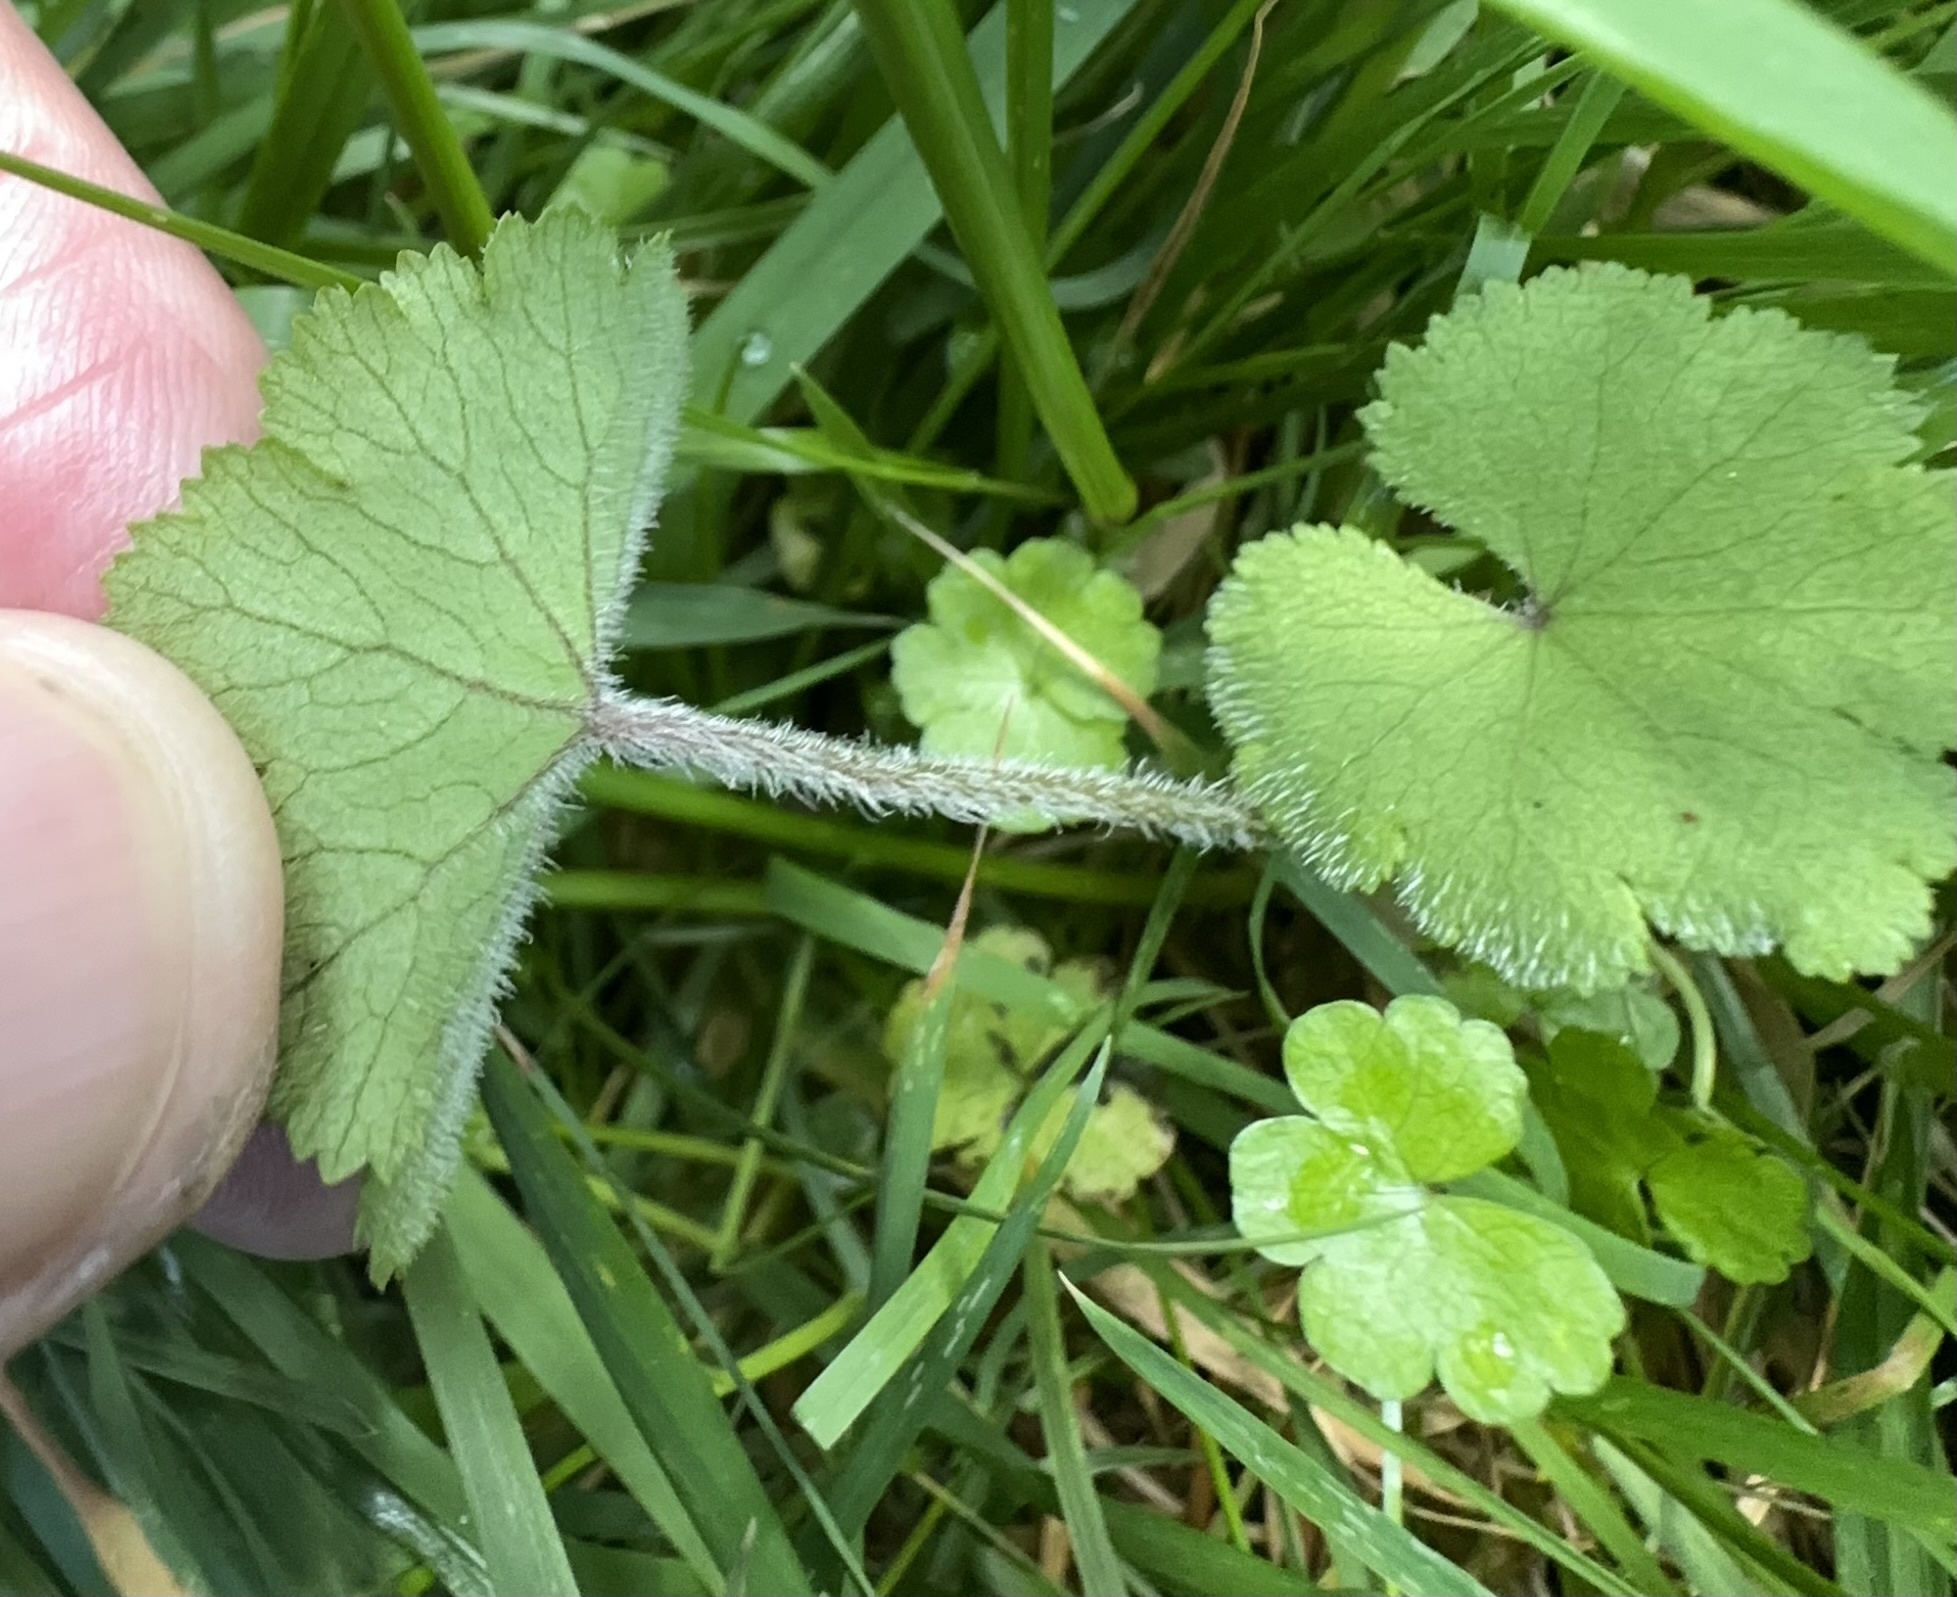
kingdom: Plantae
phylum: Tracheophyta
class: Magnoliopsida
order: Apiales
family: Araliaceae
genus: Hydrocotyle
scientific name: Hydrocotyle moschata
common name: Hairy pennywort
